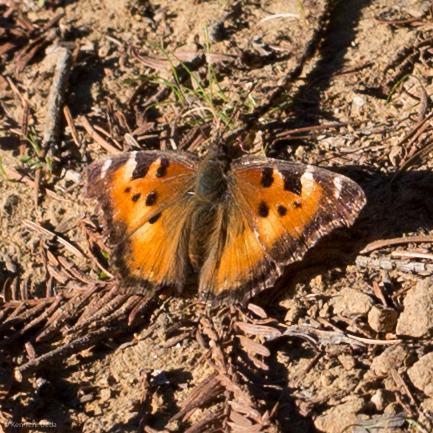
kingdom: Animalia
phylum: Arthropoda
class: Insecta
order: Lepidoptera
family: Nymphalidae
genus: Nymphalis
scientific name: Nymphalis californica
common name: California tortoiseshell
